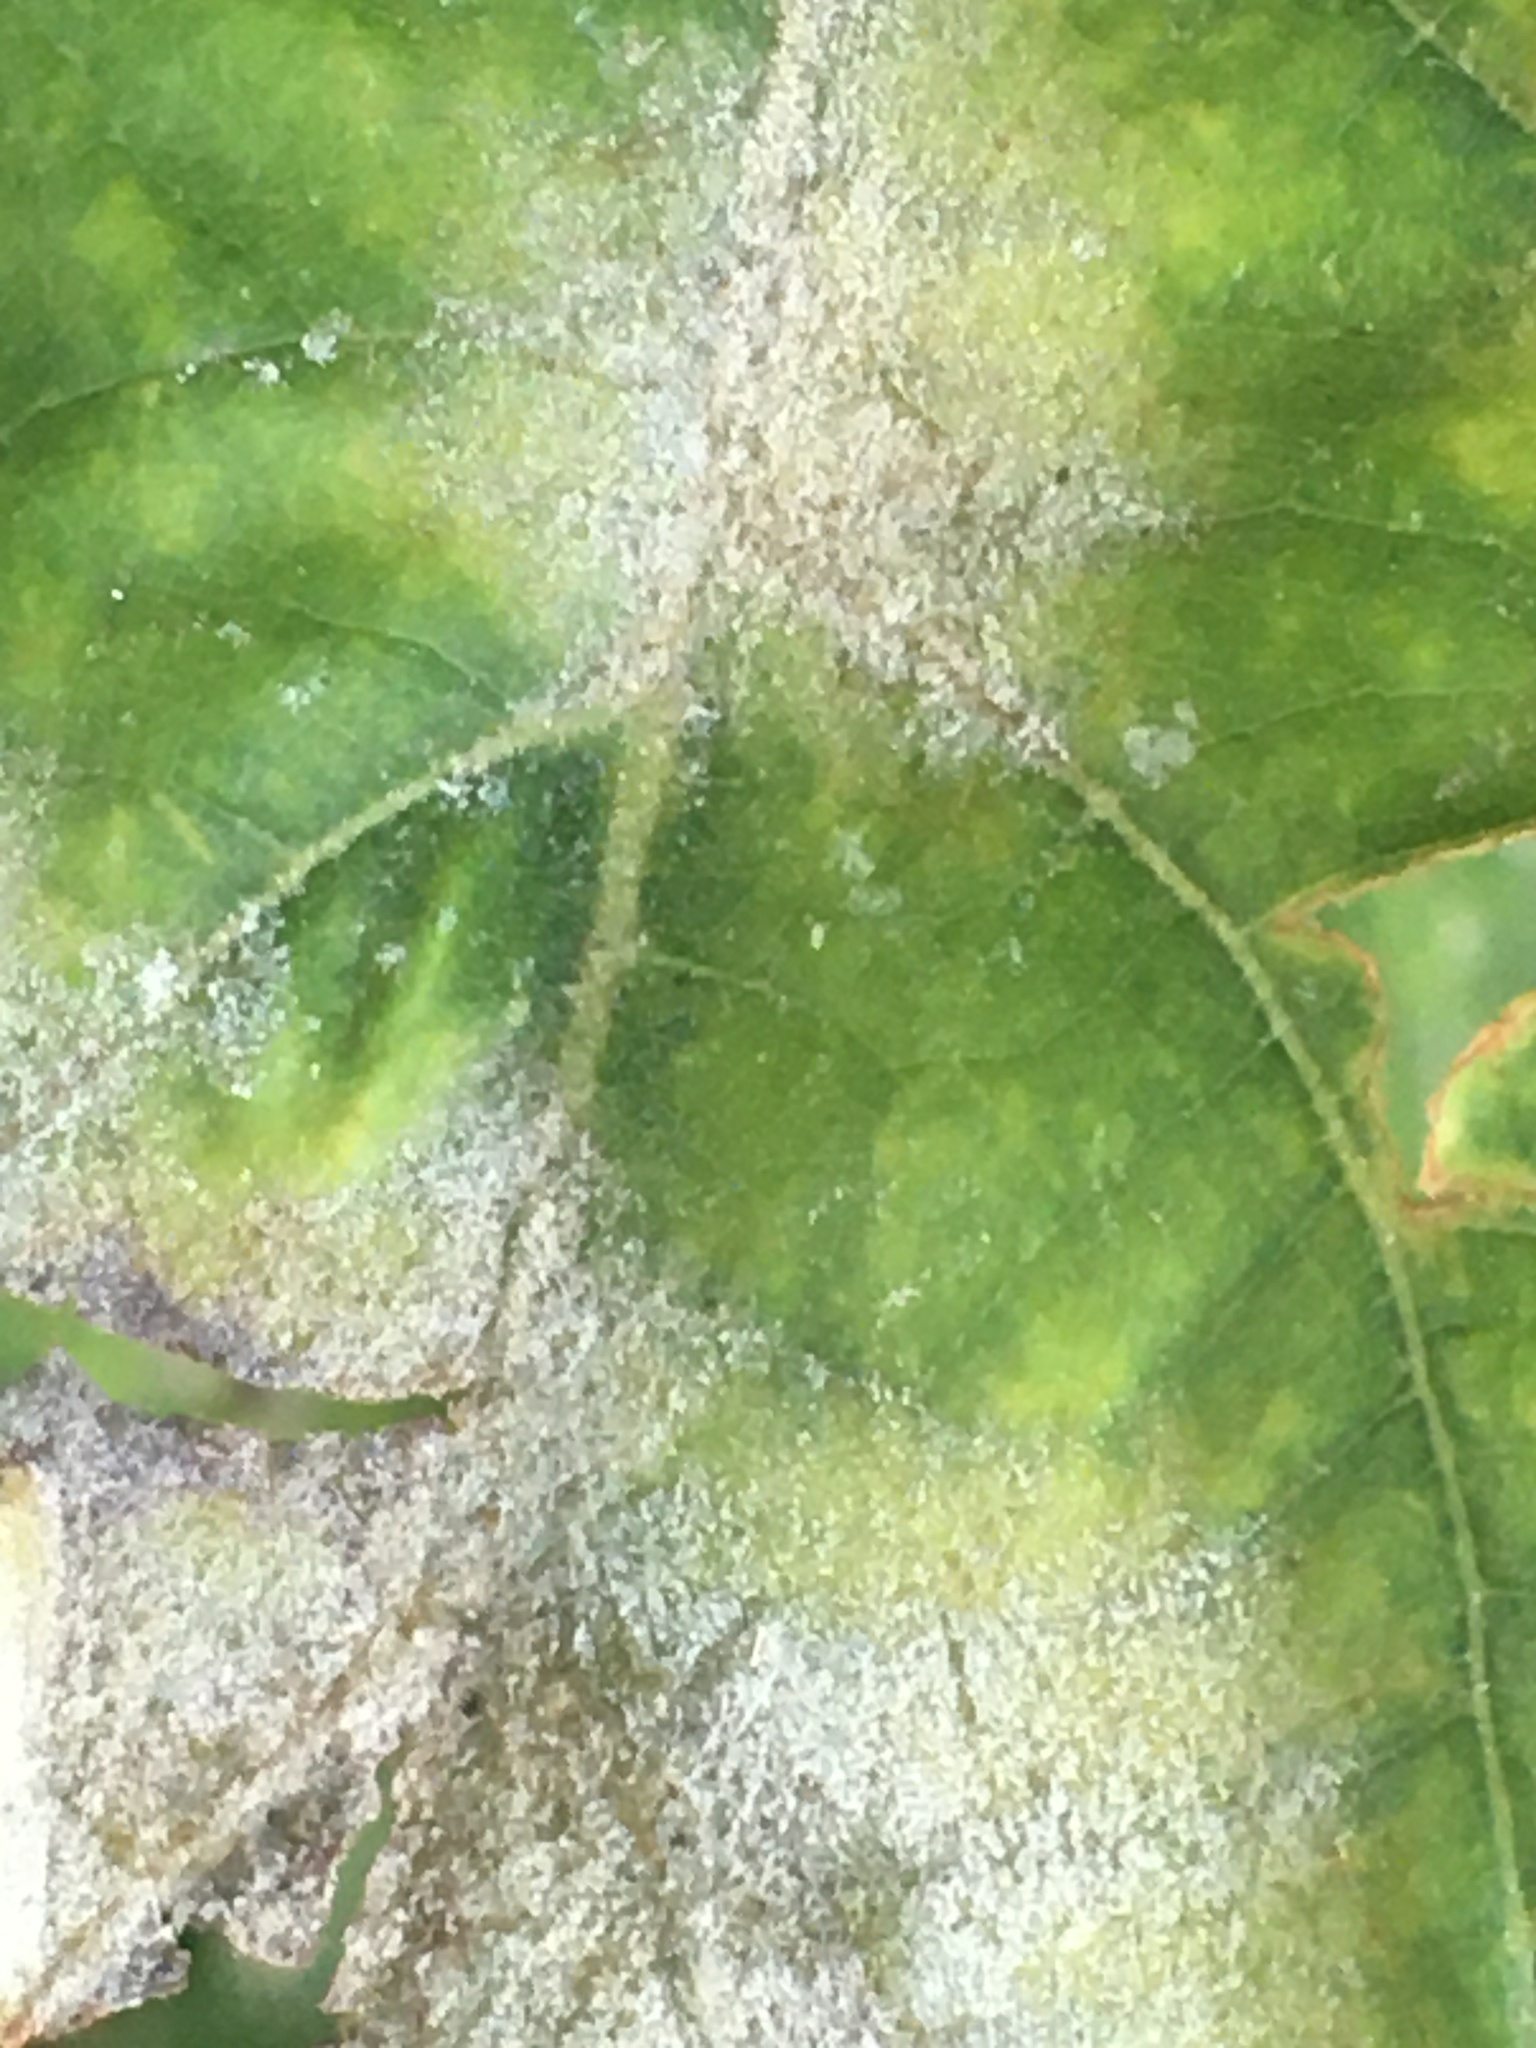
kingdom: Fungi
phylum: Ascomycota
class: Leotiomycetes
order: Helotiales
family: Erysiphaceae
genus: Erysiphe
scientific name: Erysiphe platani
